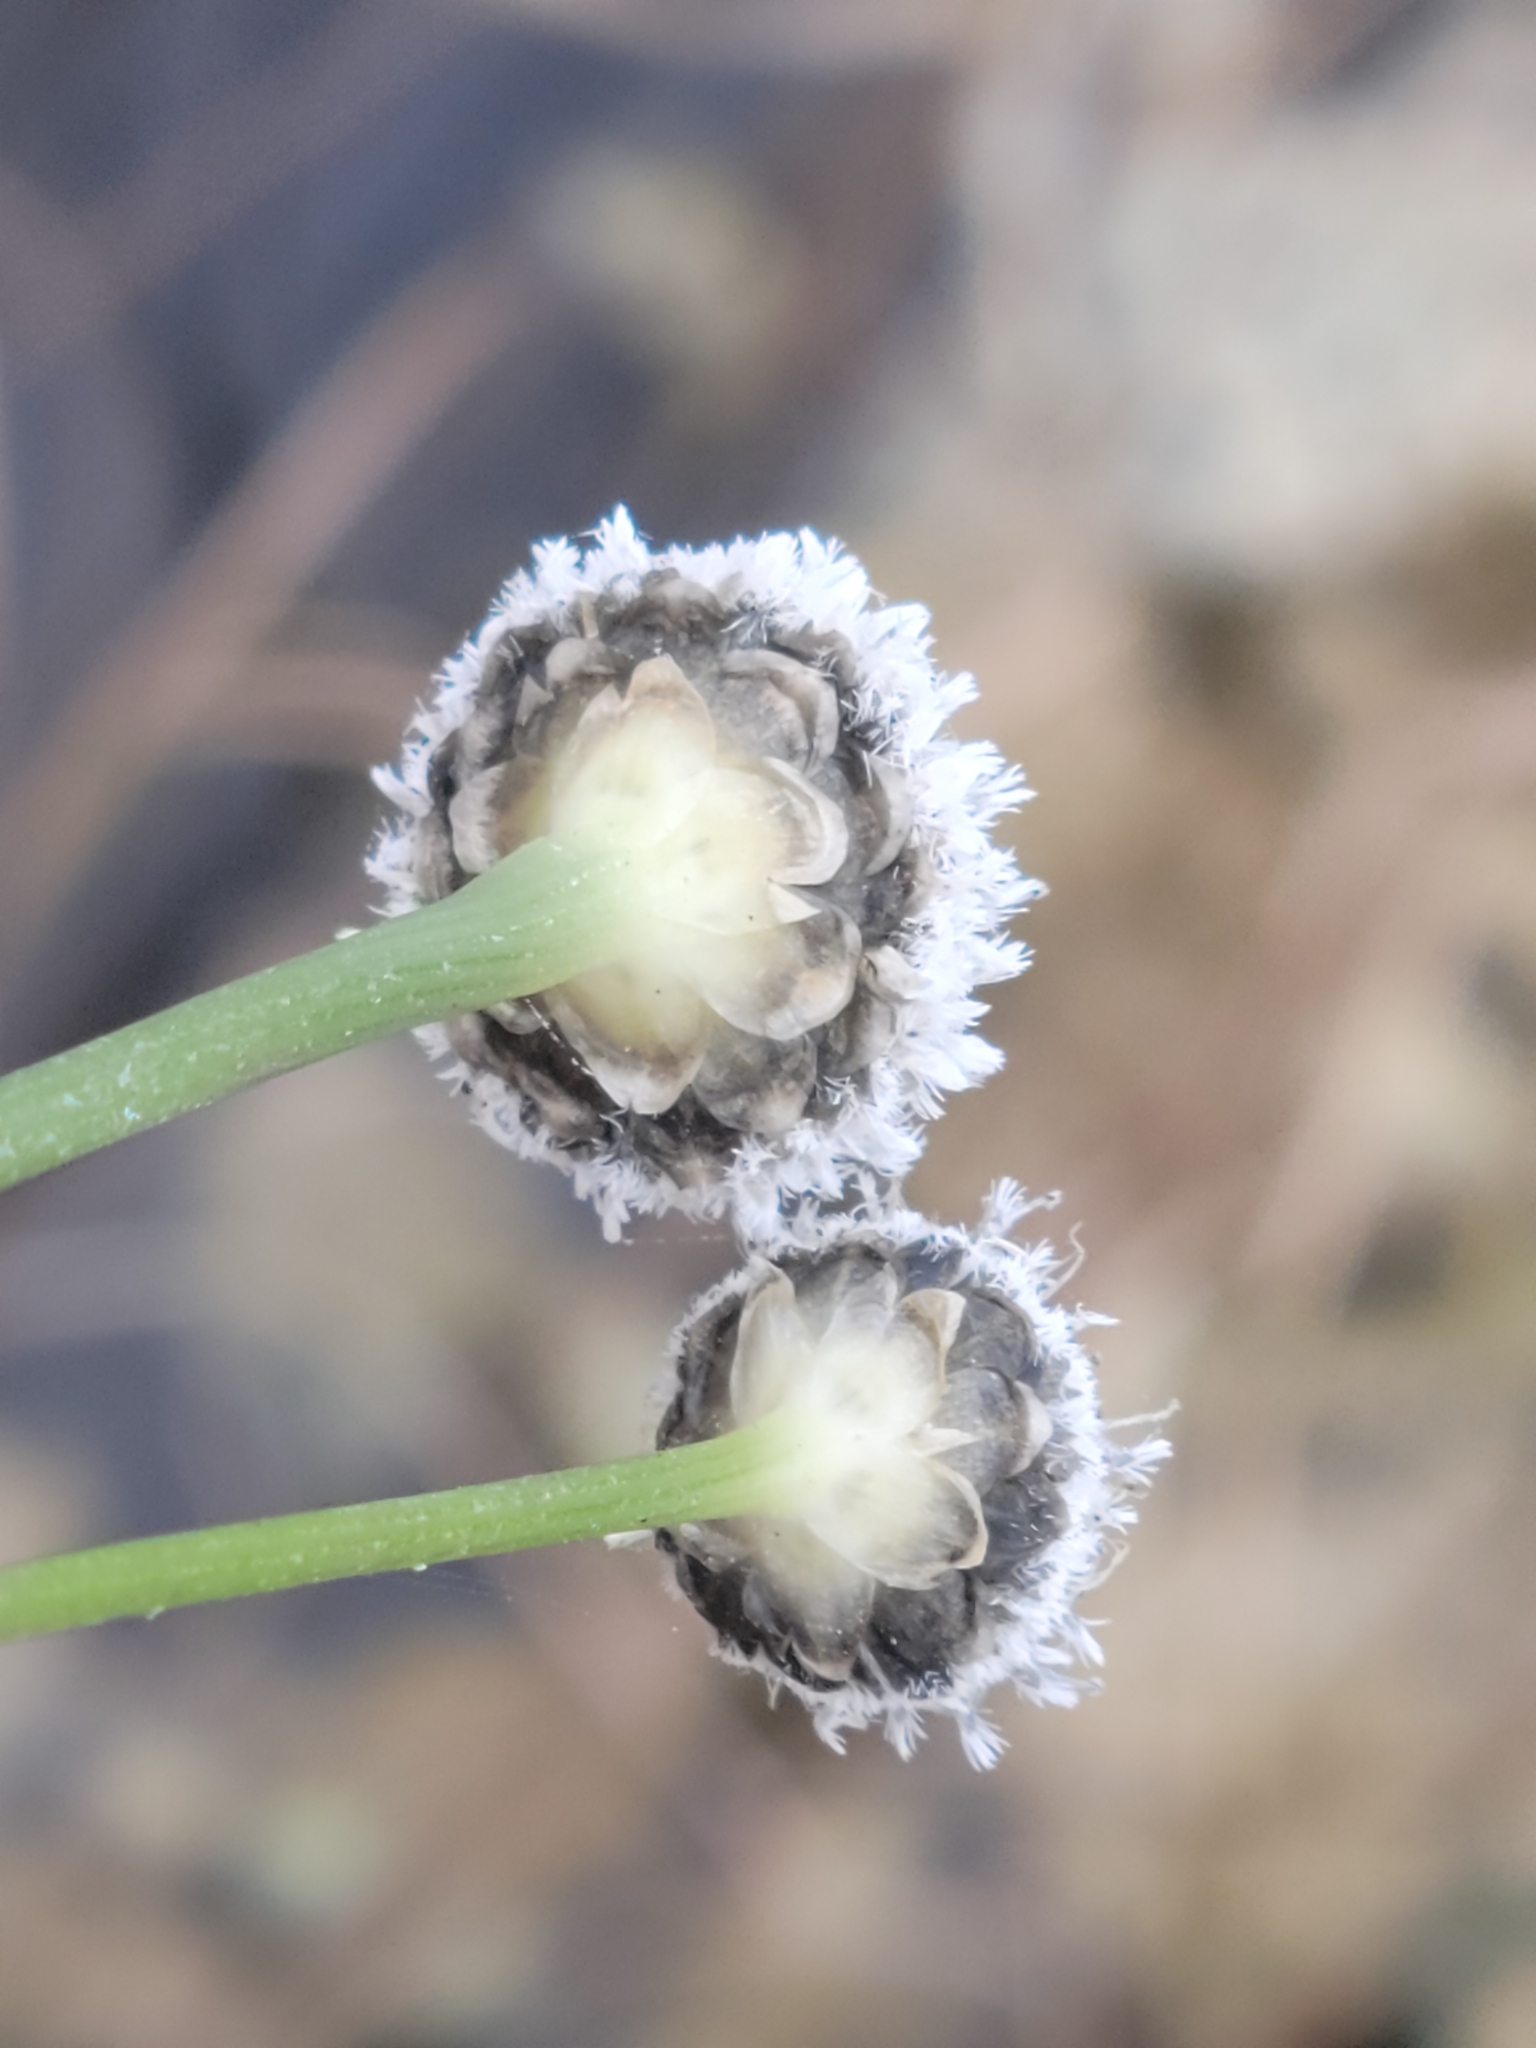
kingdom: Plantae
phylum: Tracheophyta
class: Liliopsida
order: Poales
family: Eriocaulaceae
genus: Eriocaulon
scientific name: Eriocaulon compressum
